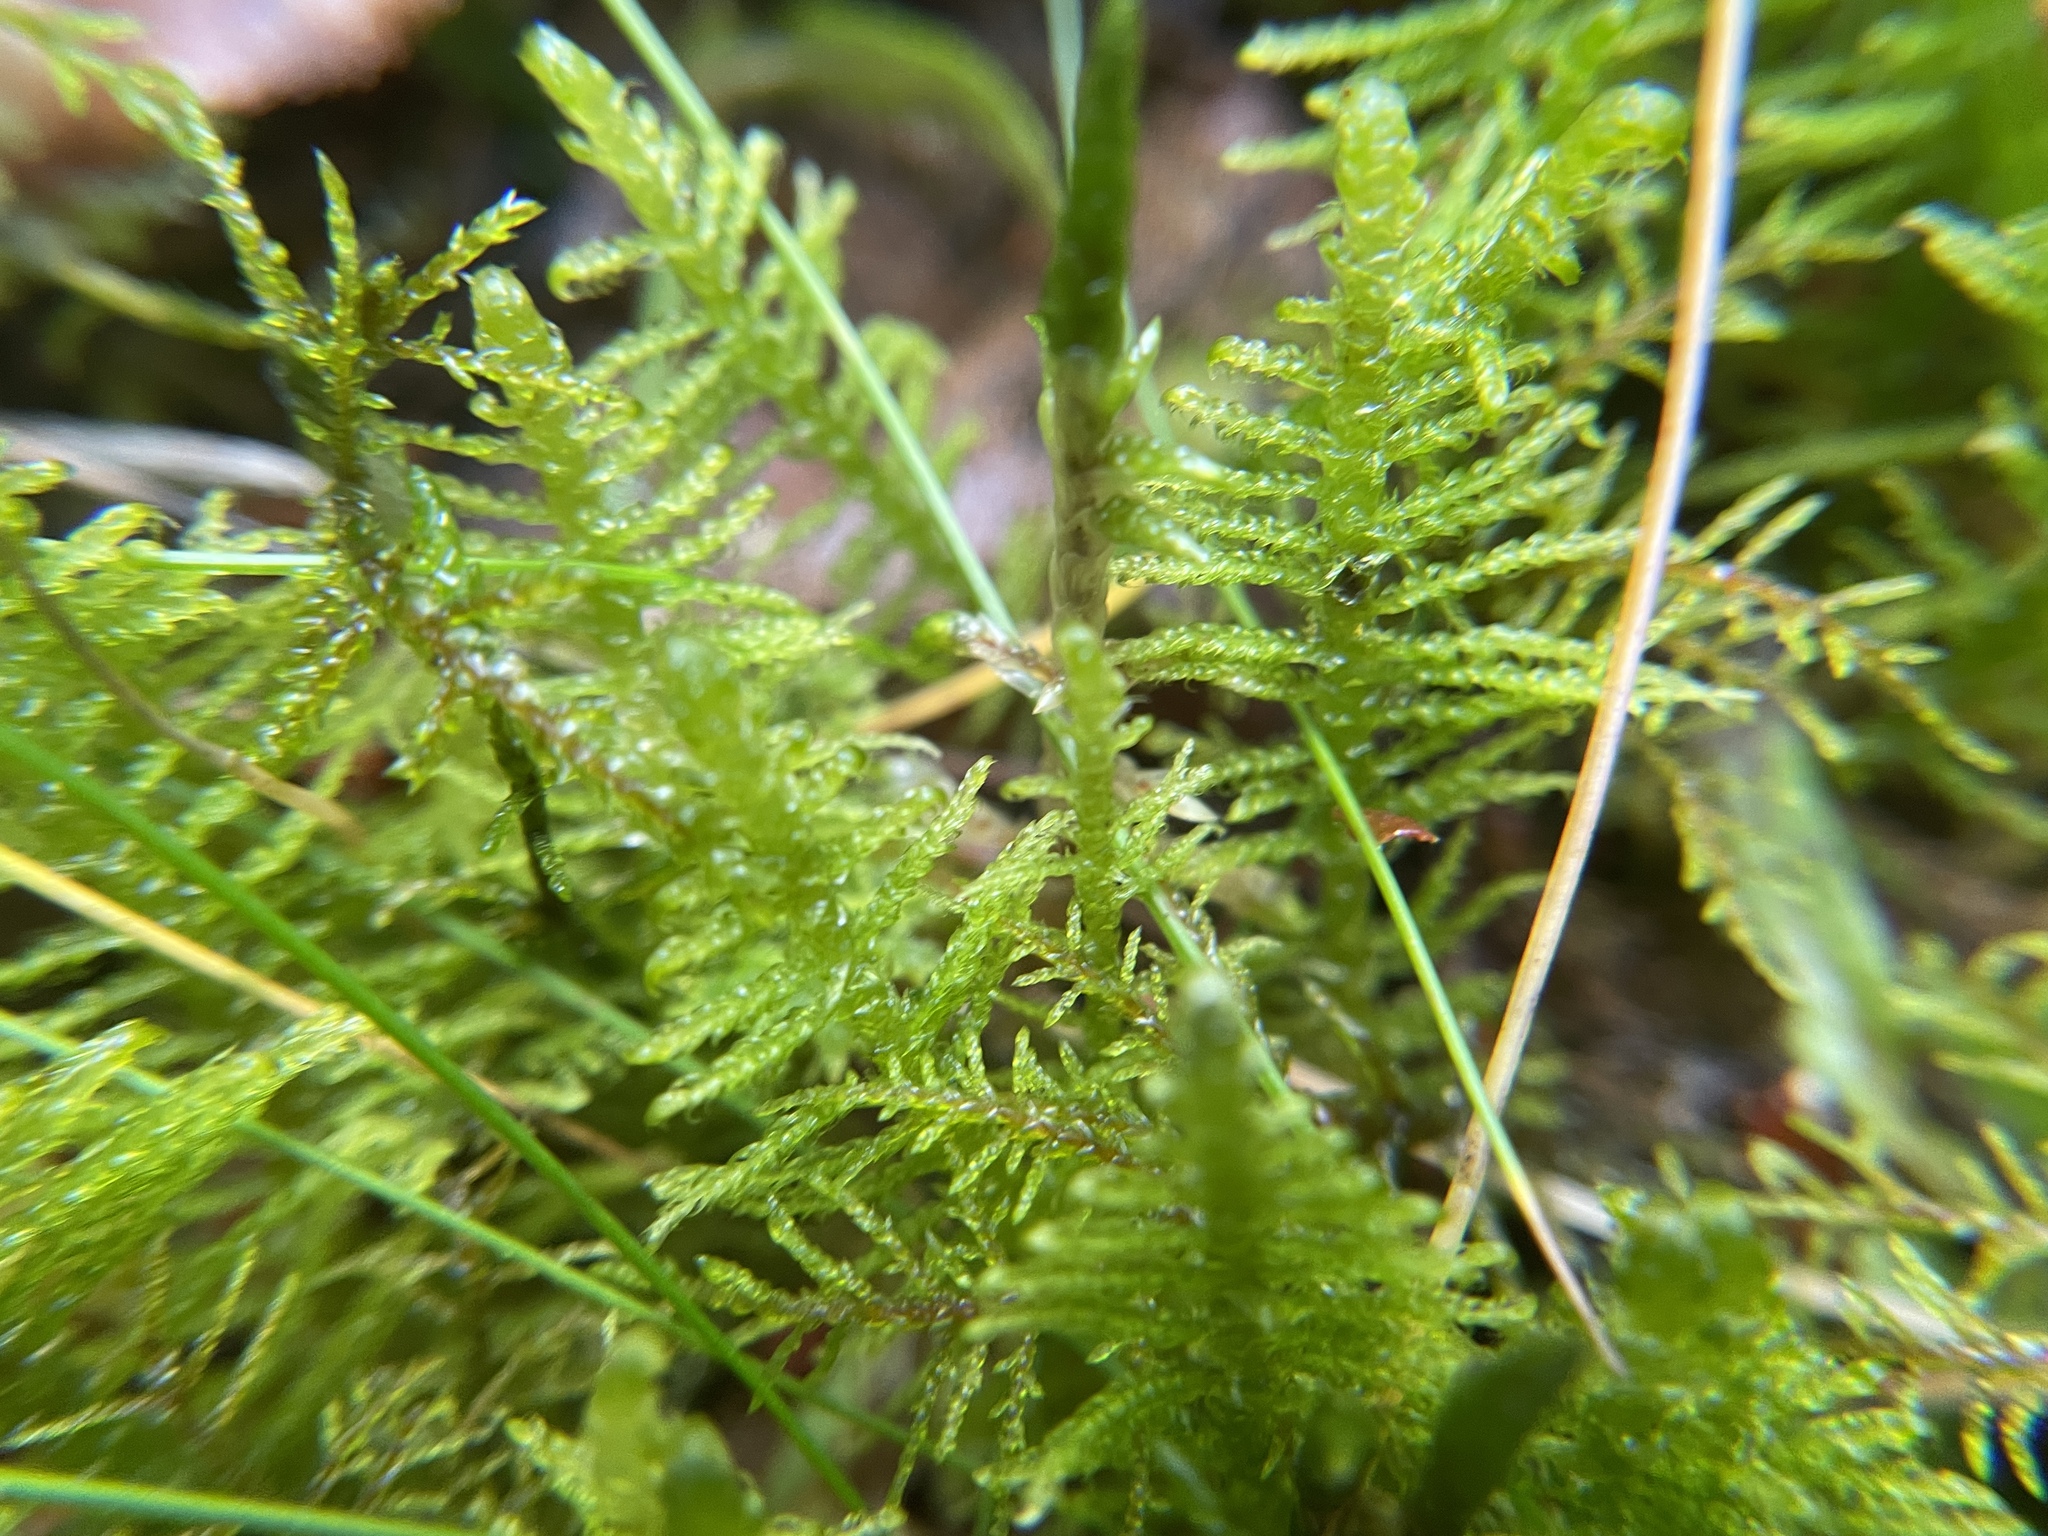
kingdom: Plantae
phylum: Bryophyta
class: Bryopsida
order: Hypnales
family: Pylaisiaceae
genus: Ptilium
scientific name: Ptilium crista-castrensis
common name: Knight's plume moss
